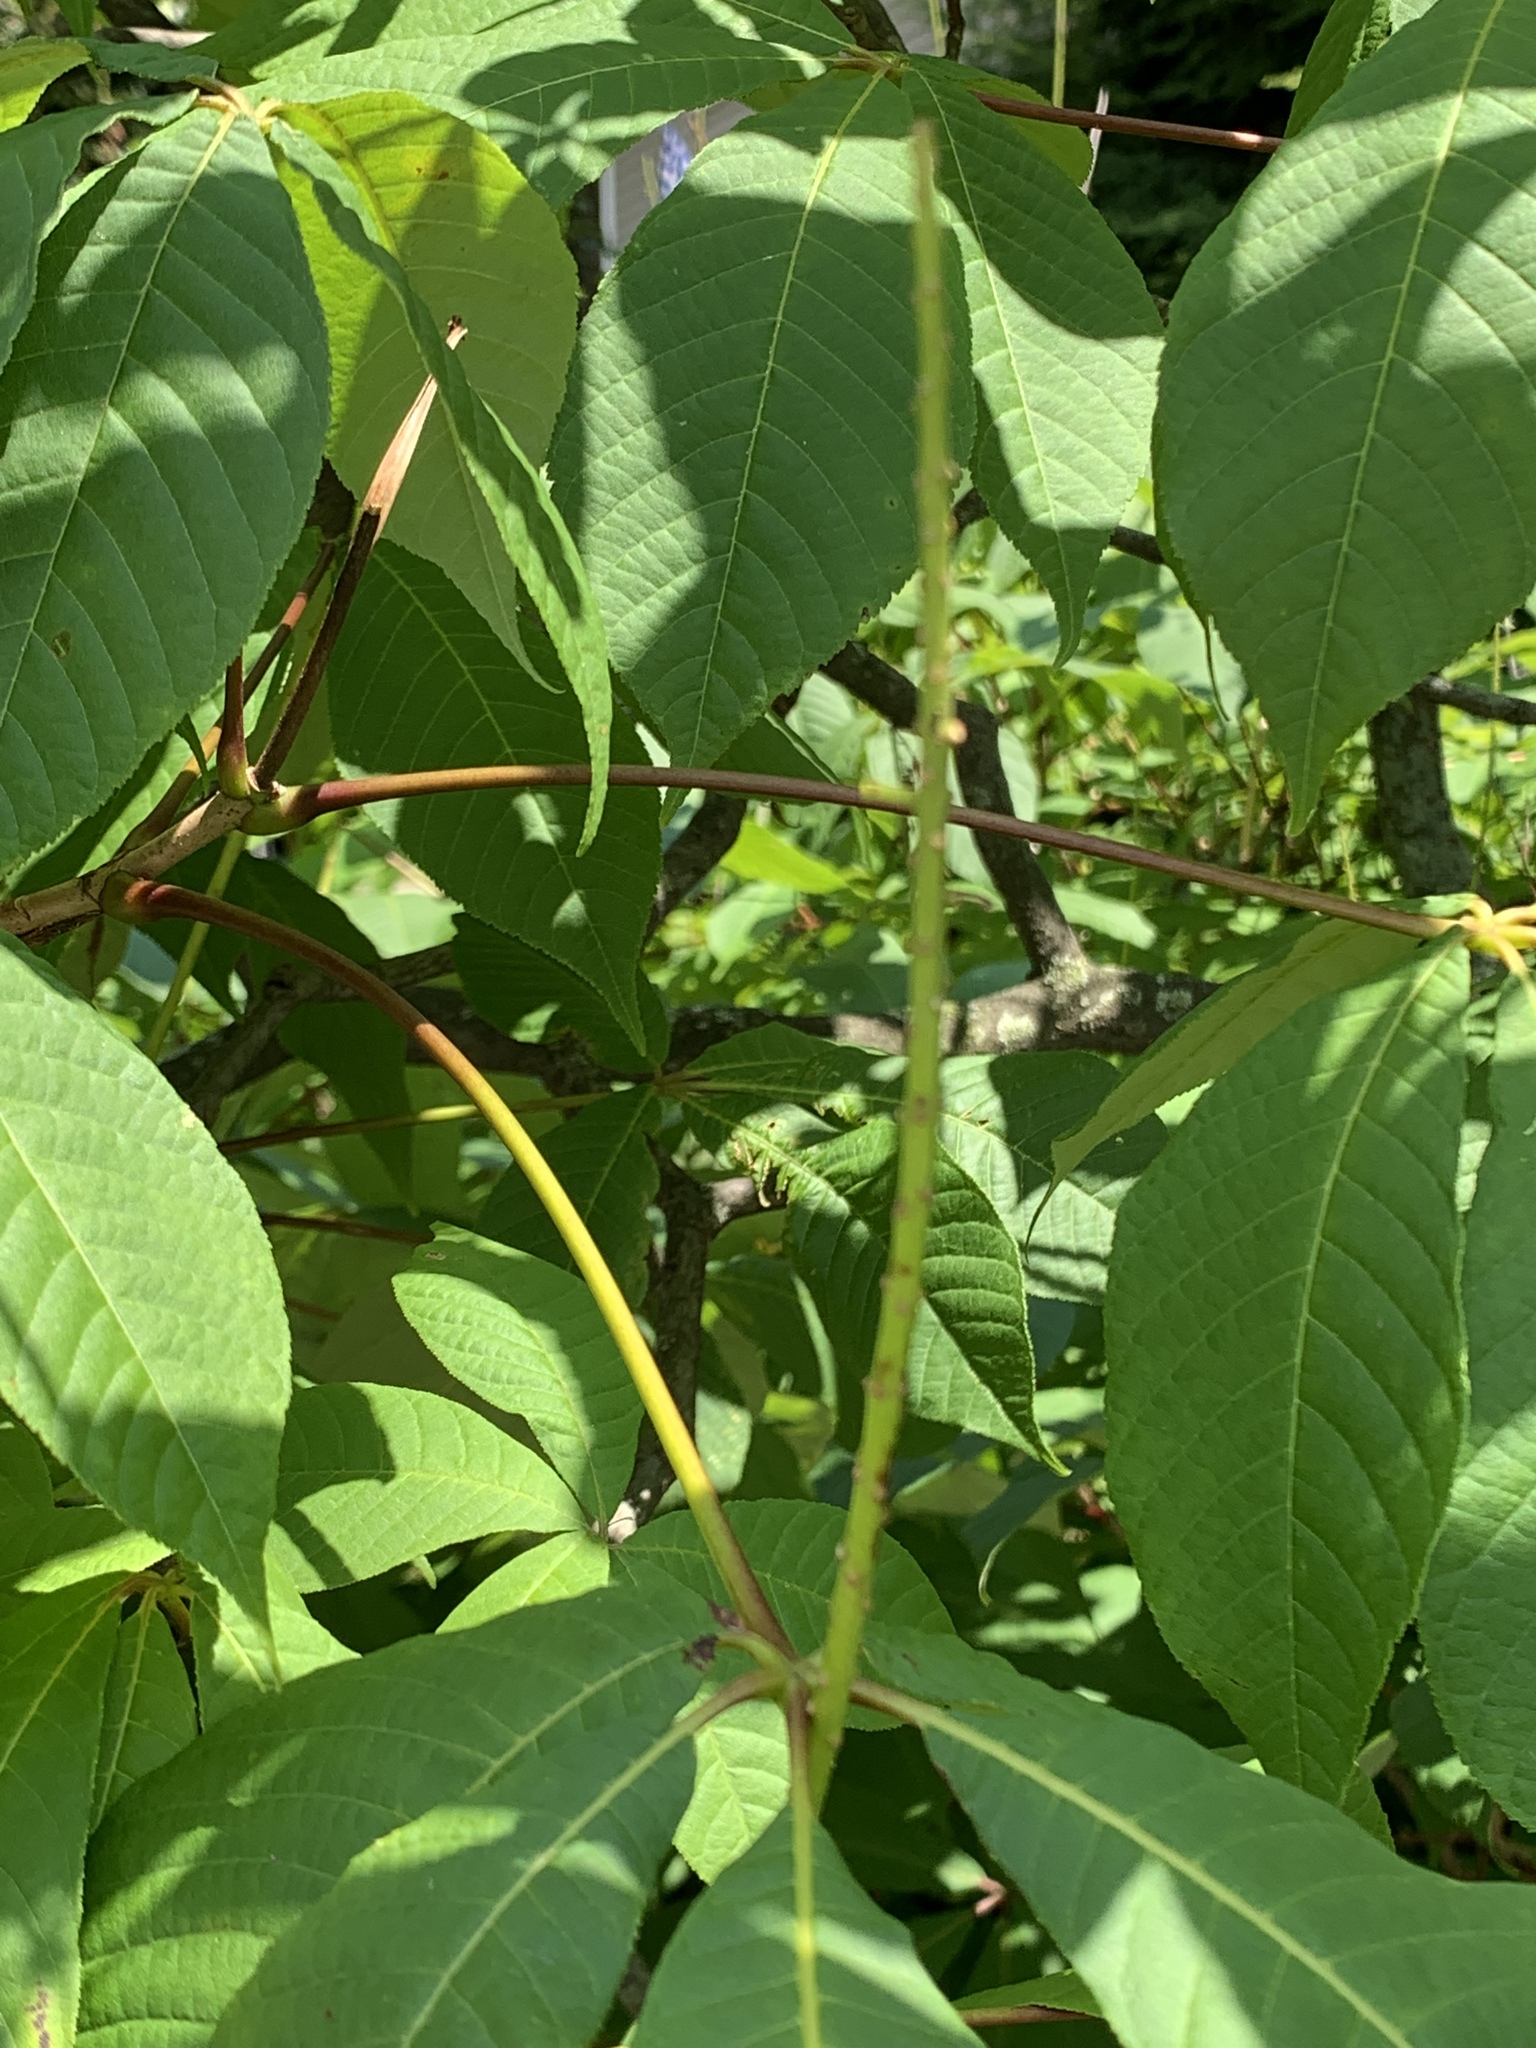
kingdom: Plantae
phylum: Tracheophyta
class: Magnoliopsida
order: Sapindales
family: Sapindaceae
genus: Aesculus
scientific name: Aesculus parviflora
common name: Bottlebrush buckeye
